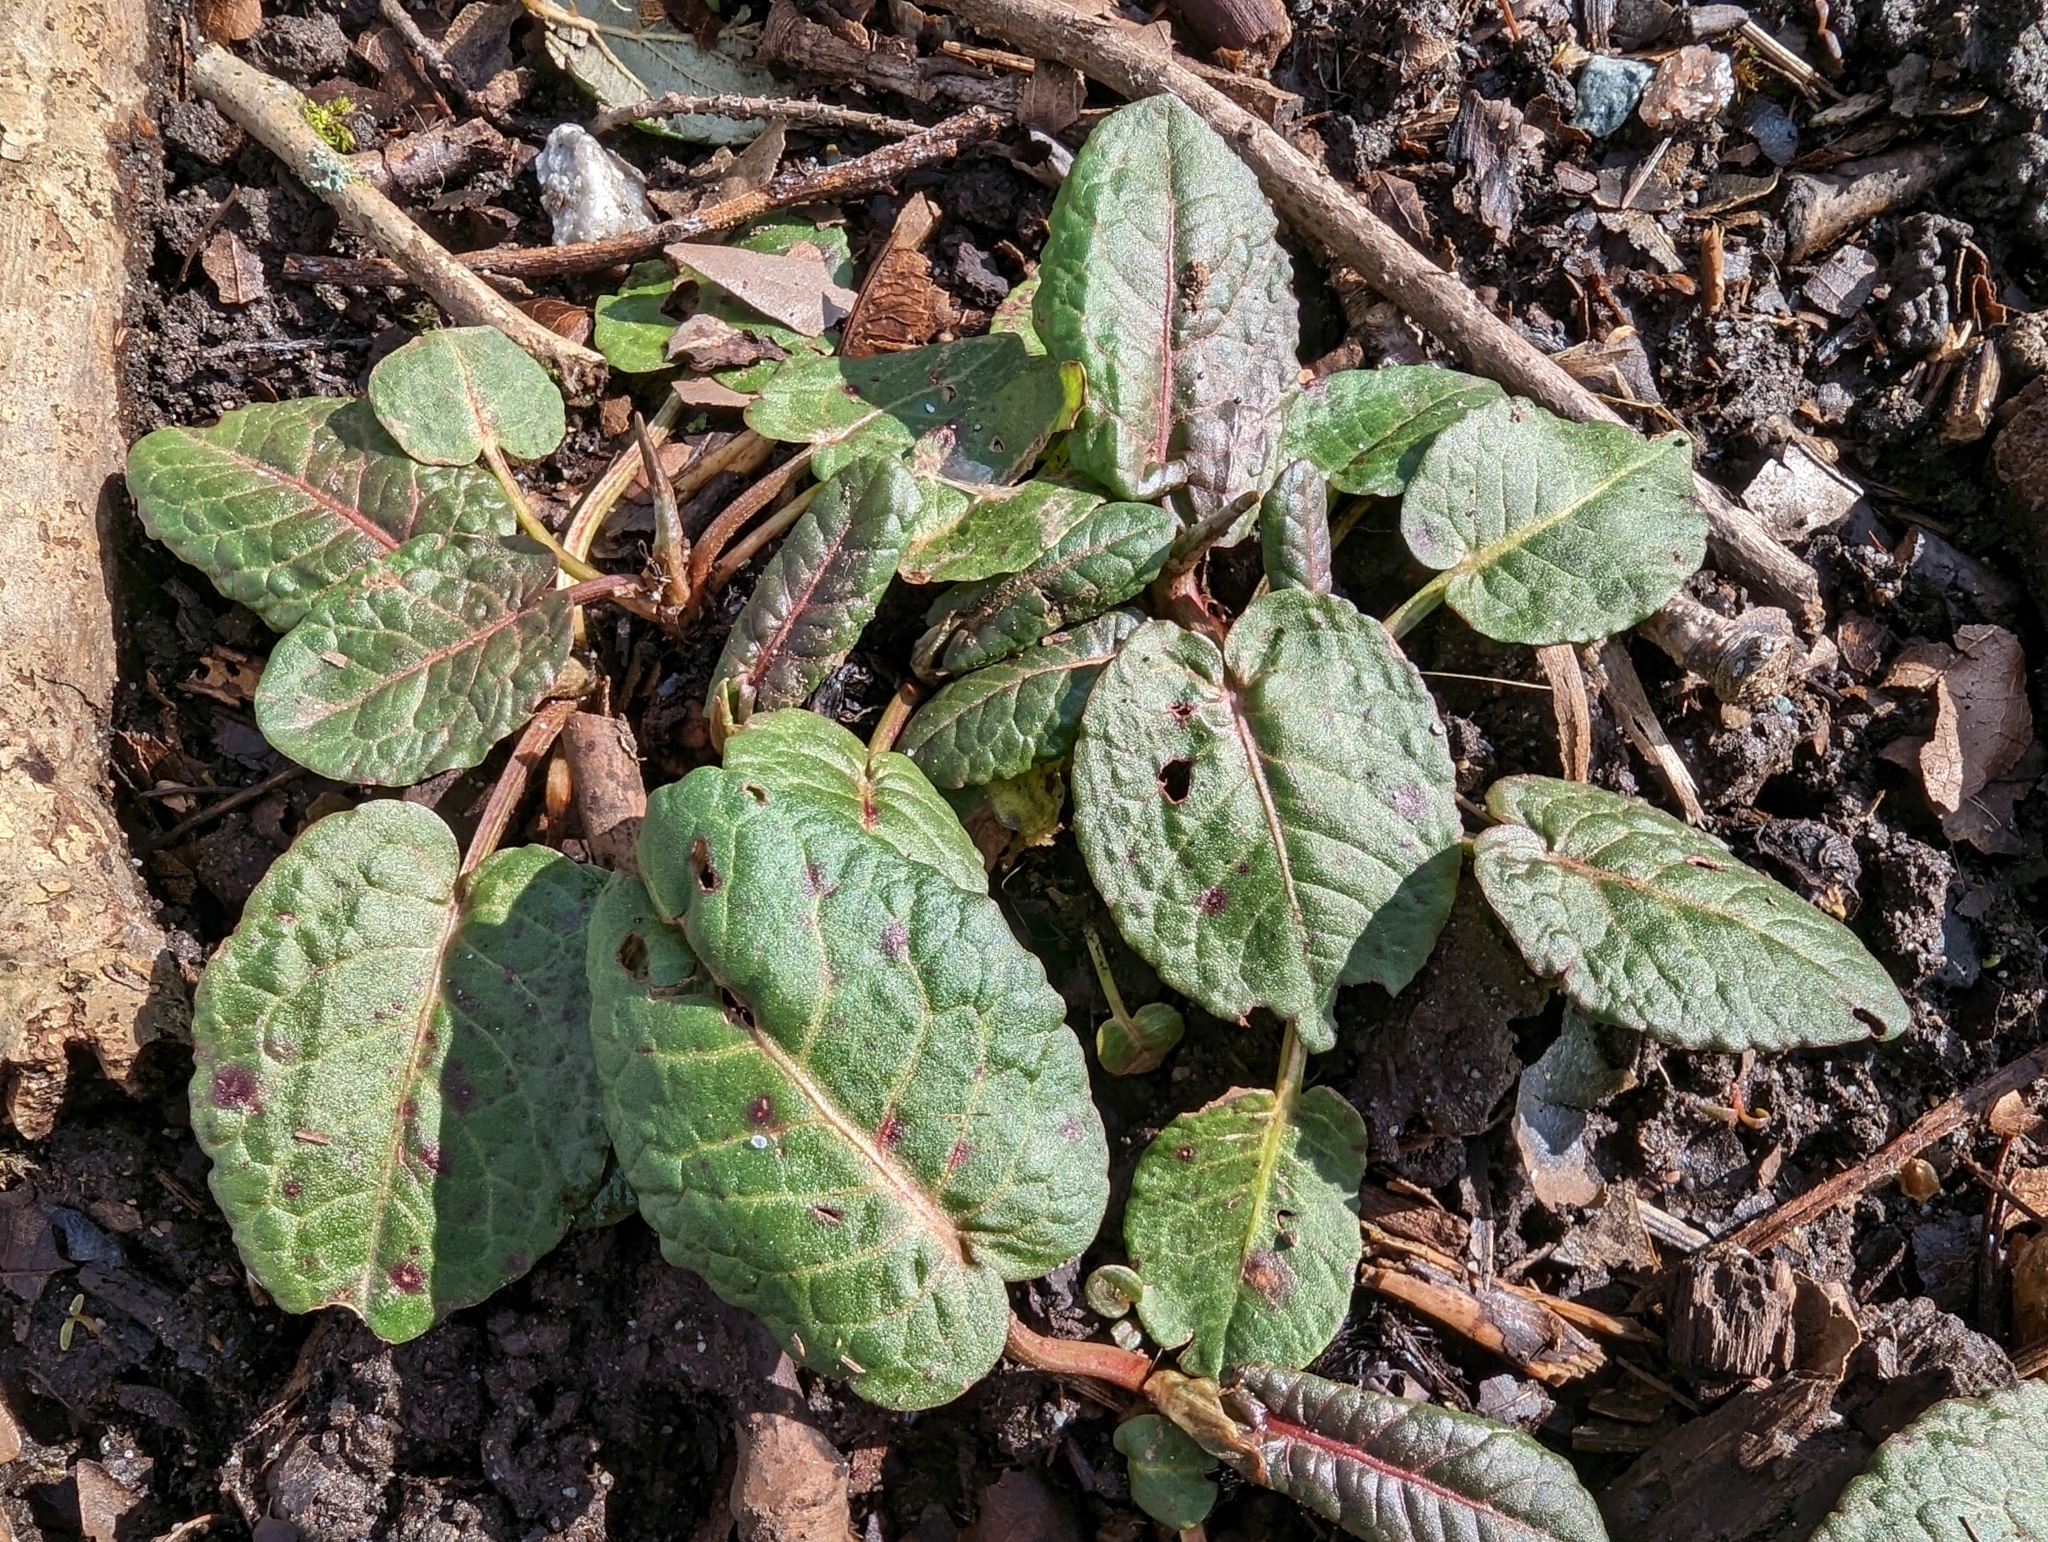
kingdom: Plantae
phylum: Tracheophyta
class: Magnoliopsida
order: Caryophyllales
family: Polygonaceae
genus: Rumex
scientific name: Rumex obtusifolius
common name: Bitter dock
